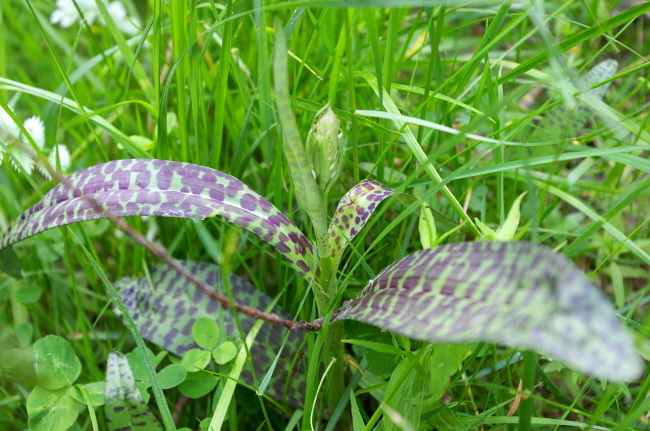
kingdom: Plantae
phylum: Tracheophyta
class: Liliopsida
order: Asparagales
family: Orchidaceae
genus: Dactylorhiza
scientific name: Dactylorhiza maculata
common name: Heath spotted-orchid
